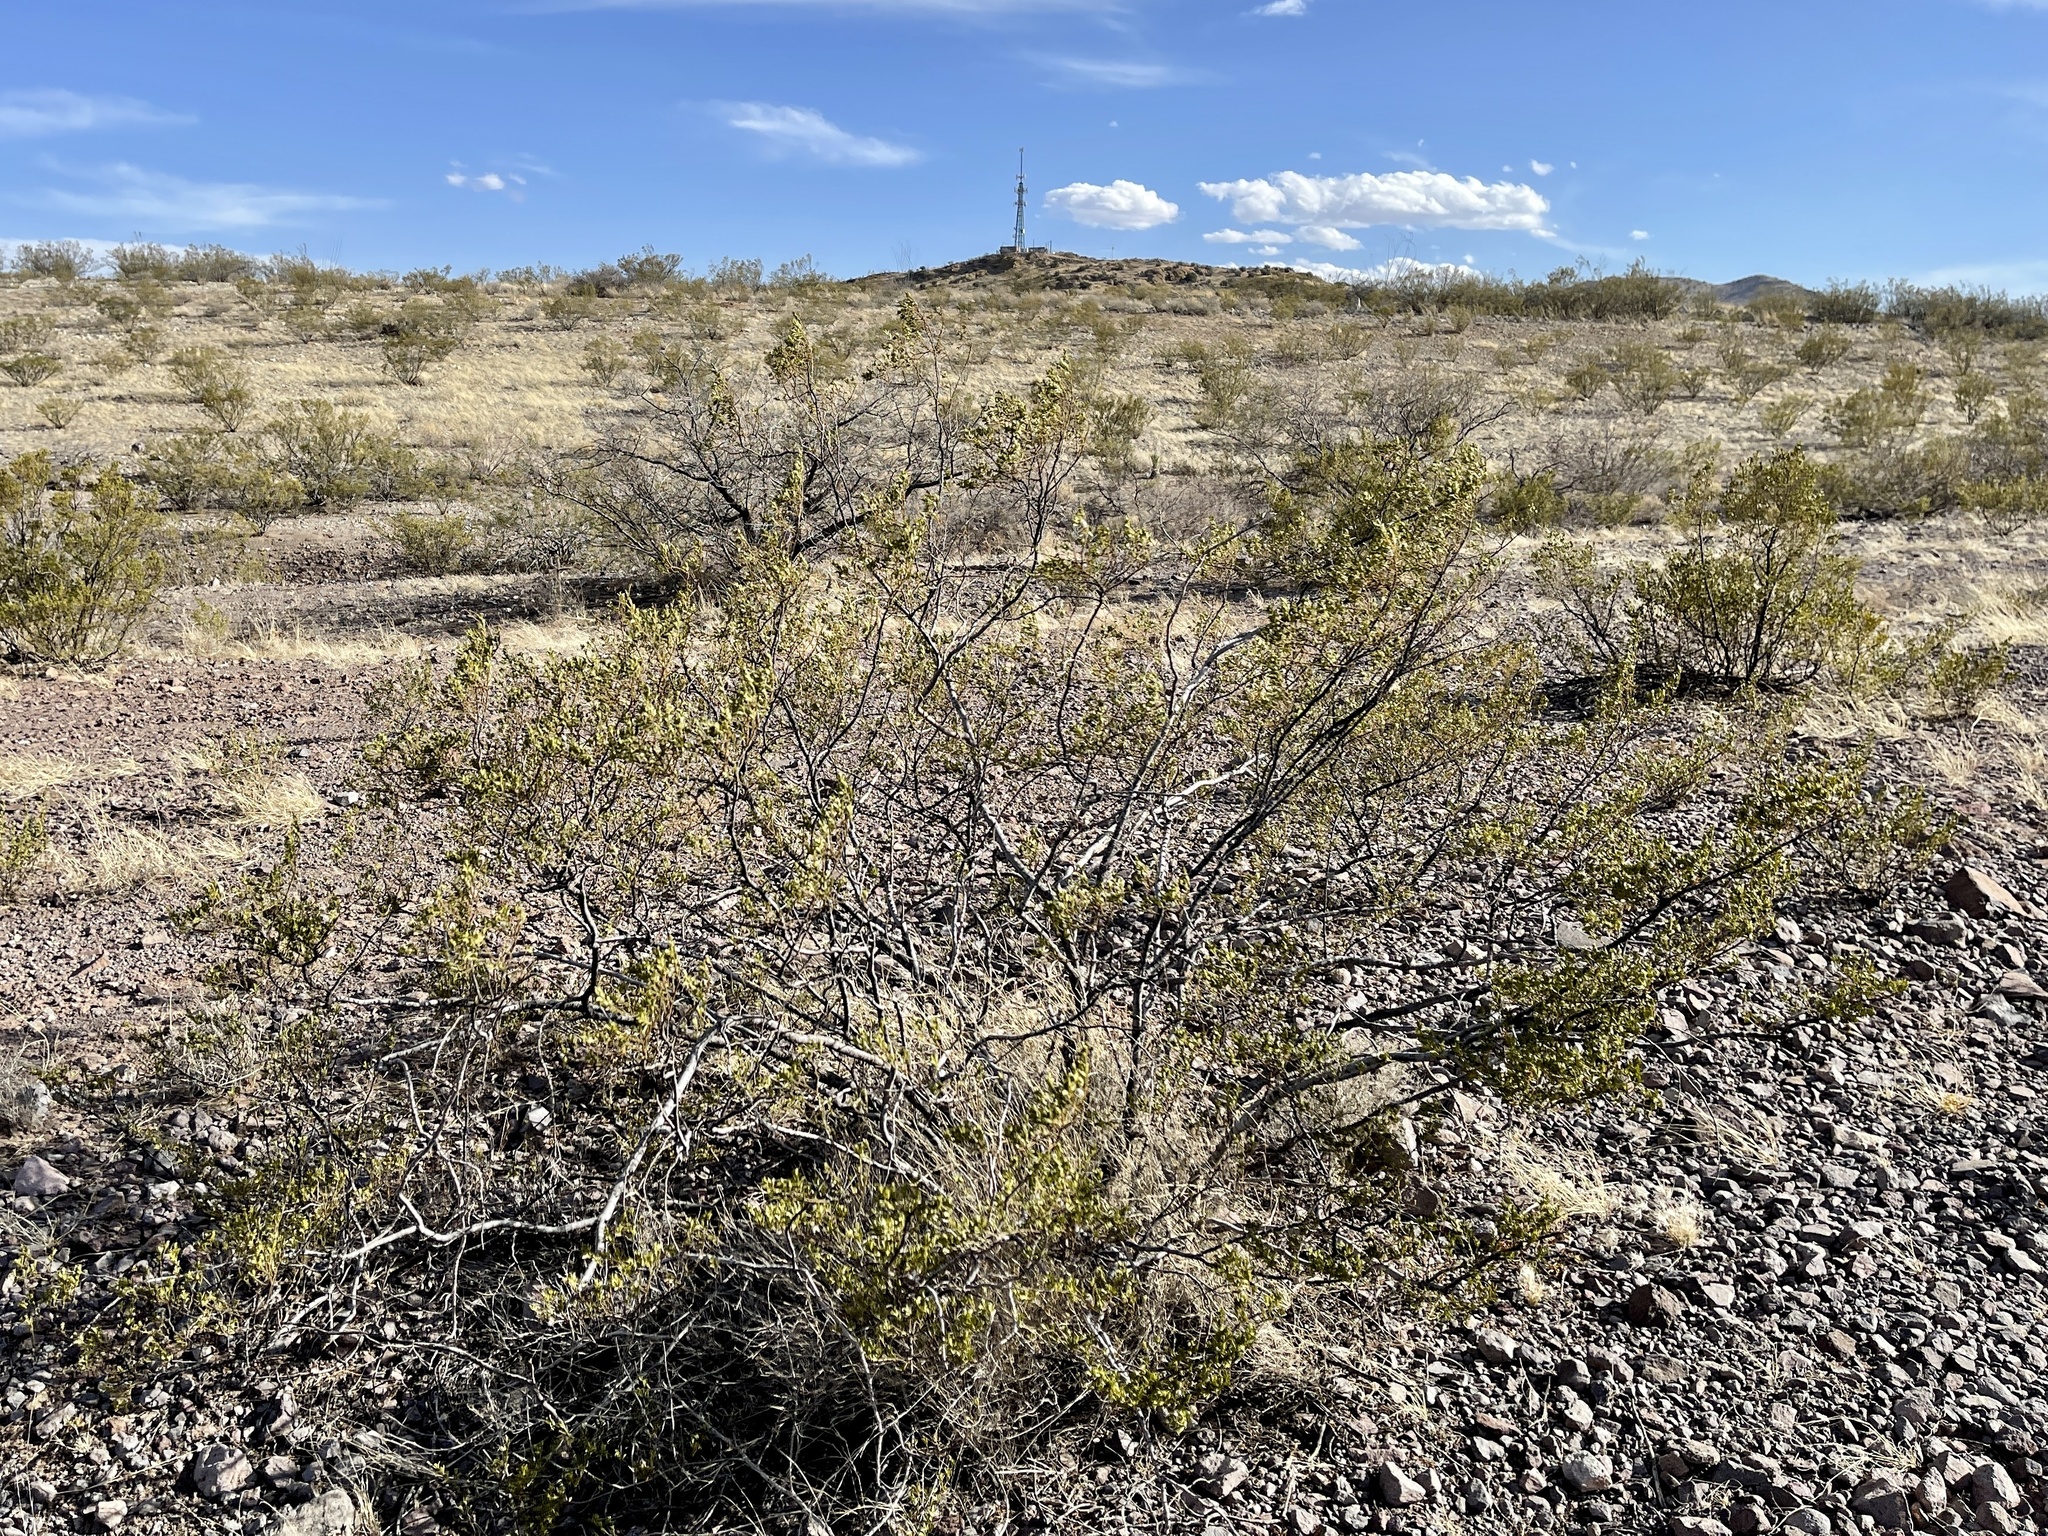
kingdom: Plantae
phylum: Tracheophyta
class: Magnoliopsida
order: Zygophyllales
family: Zygophyllaceae
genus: Larrea
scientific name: Larrea tridentata
